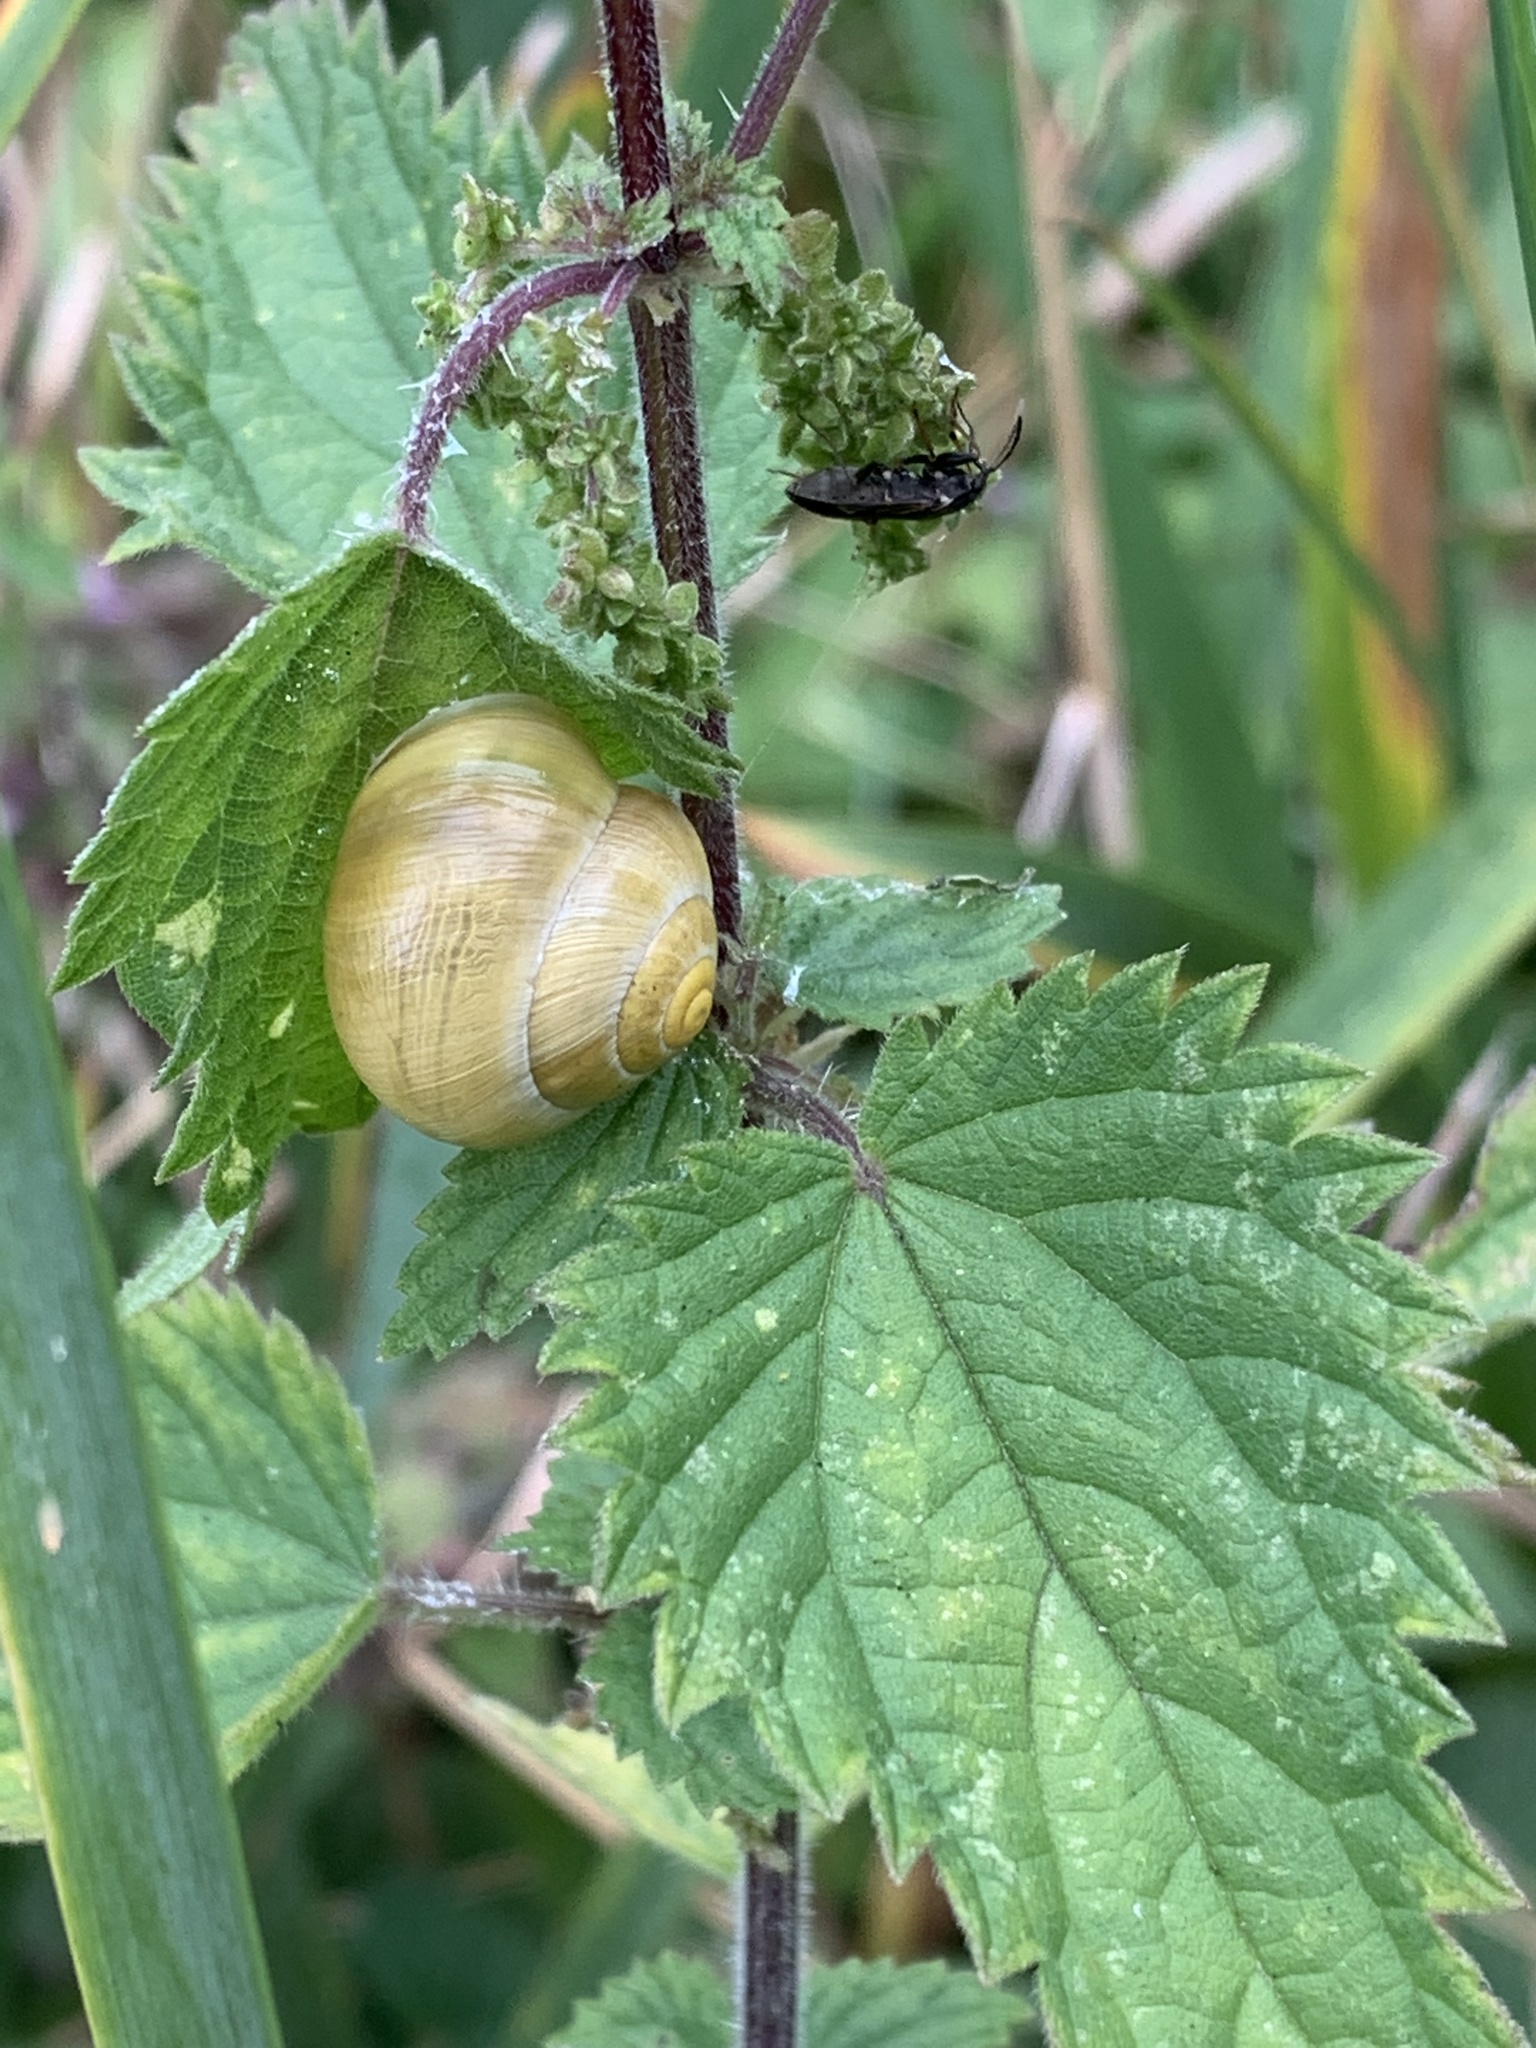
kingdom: Animalia
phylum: Mollusca
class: Gastropoda
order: Stylommatophora
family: Helicidae
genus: Cepaea
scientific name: Cepaea hortensis
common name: White-lip gardensnail
